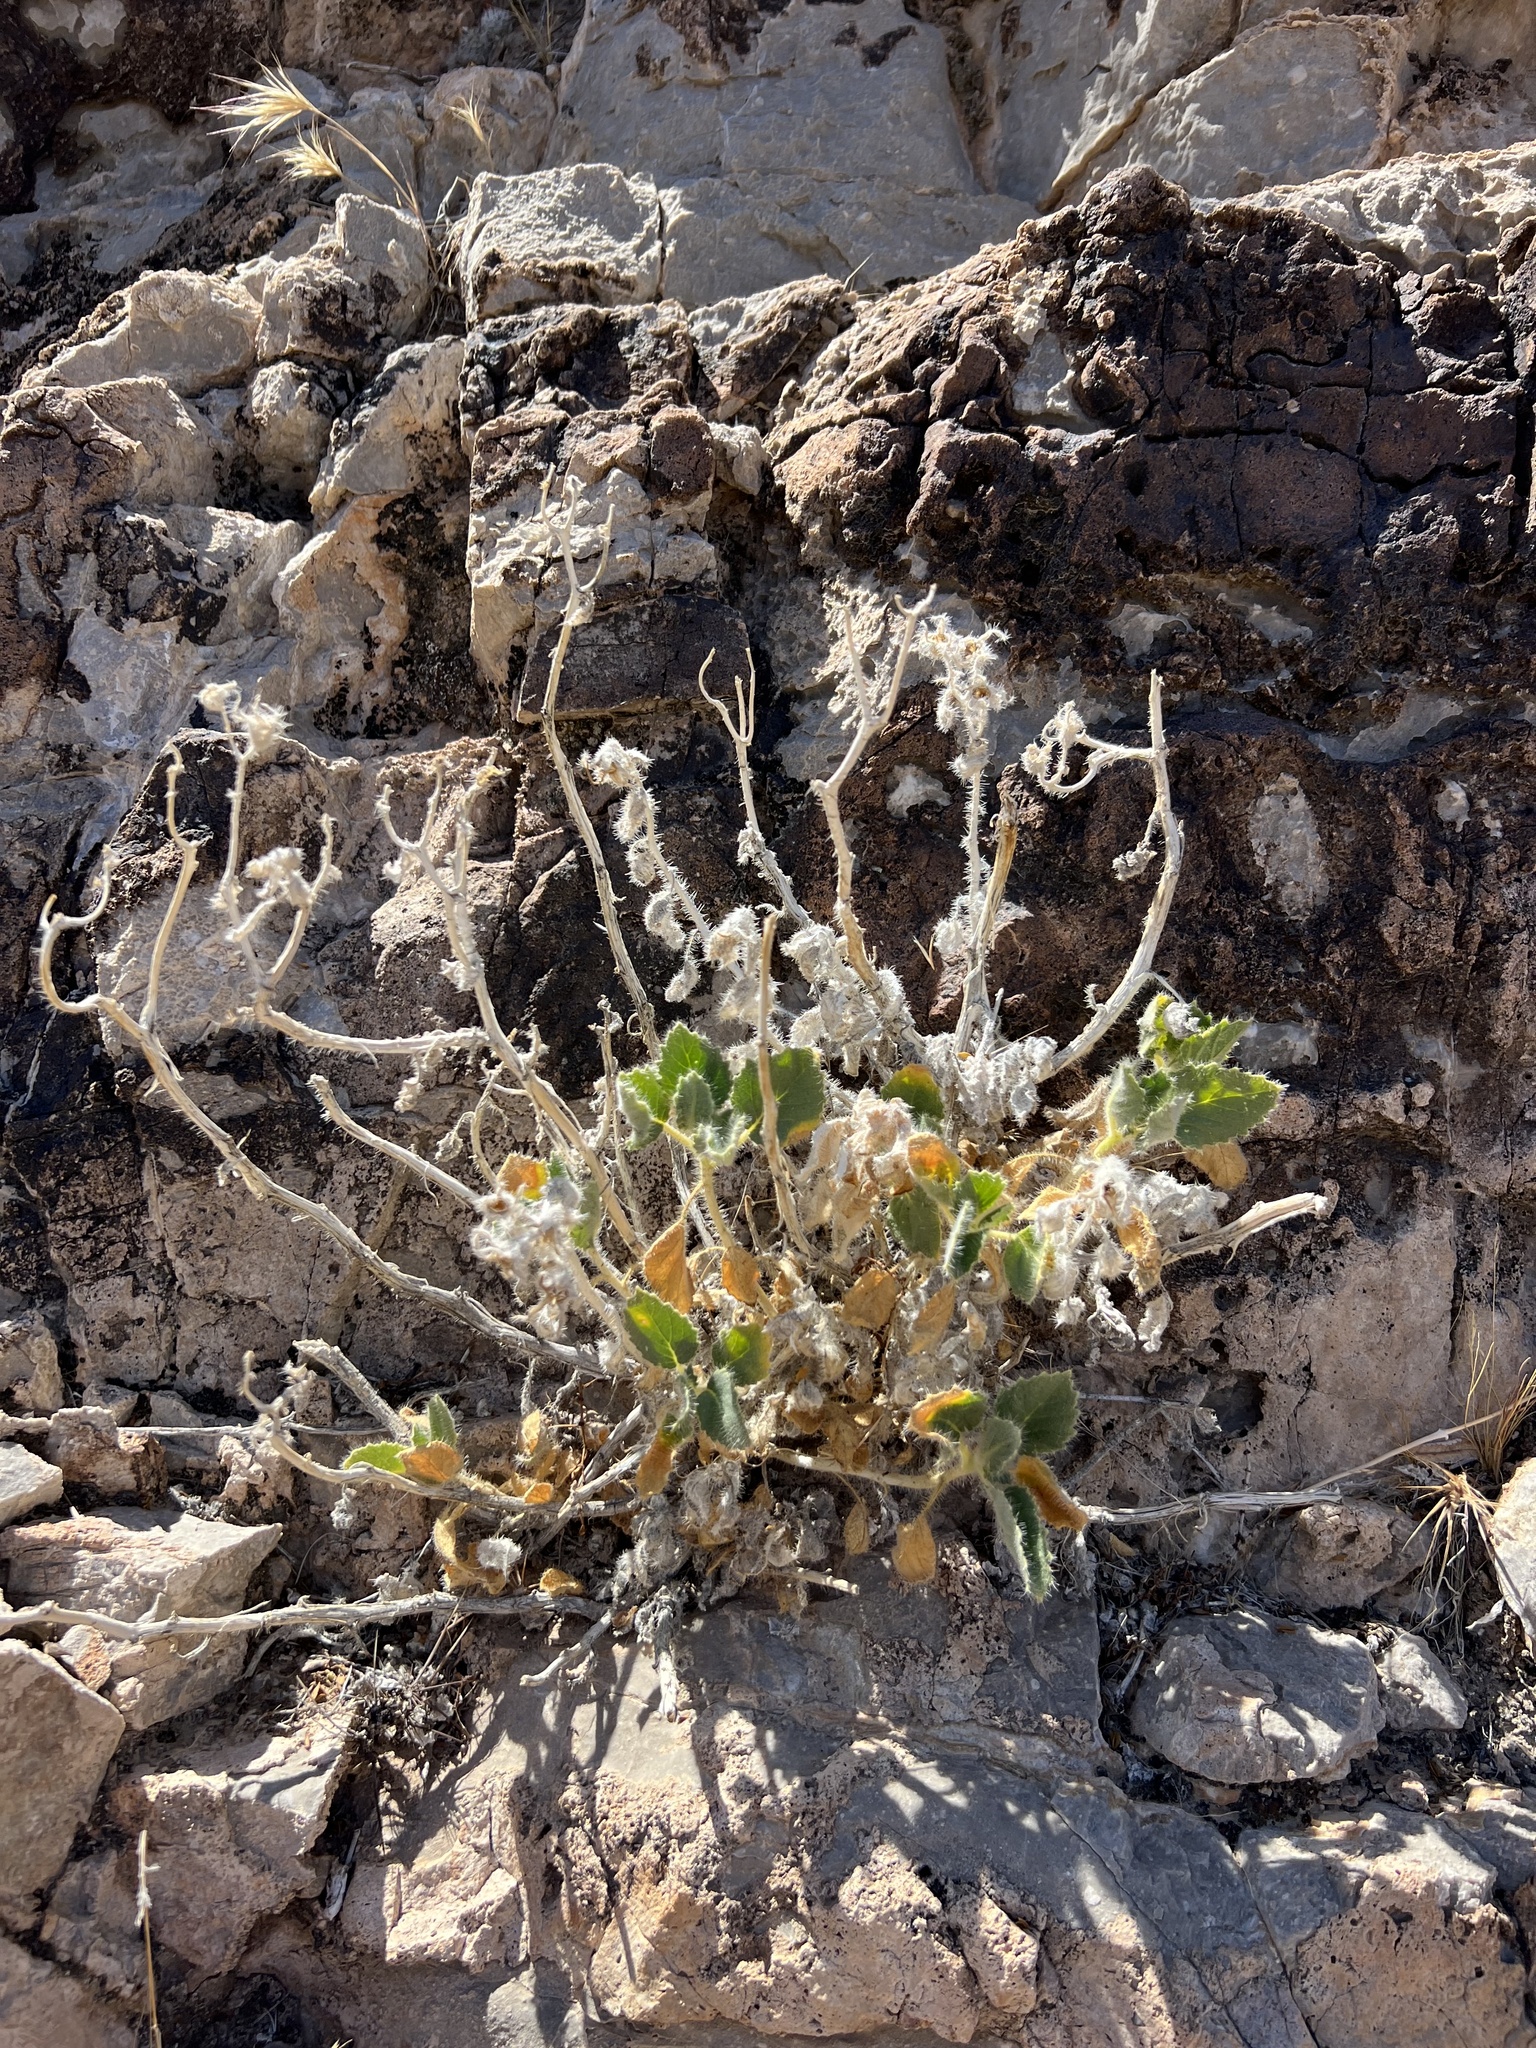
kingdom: Plantae
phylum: Tracheophyta
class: Magnoliopsida
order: Cornales
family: Loasaceae
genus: Eucnide
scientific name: Eucnide urens
